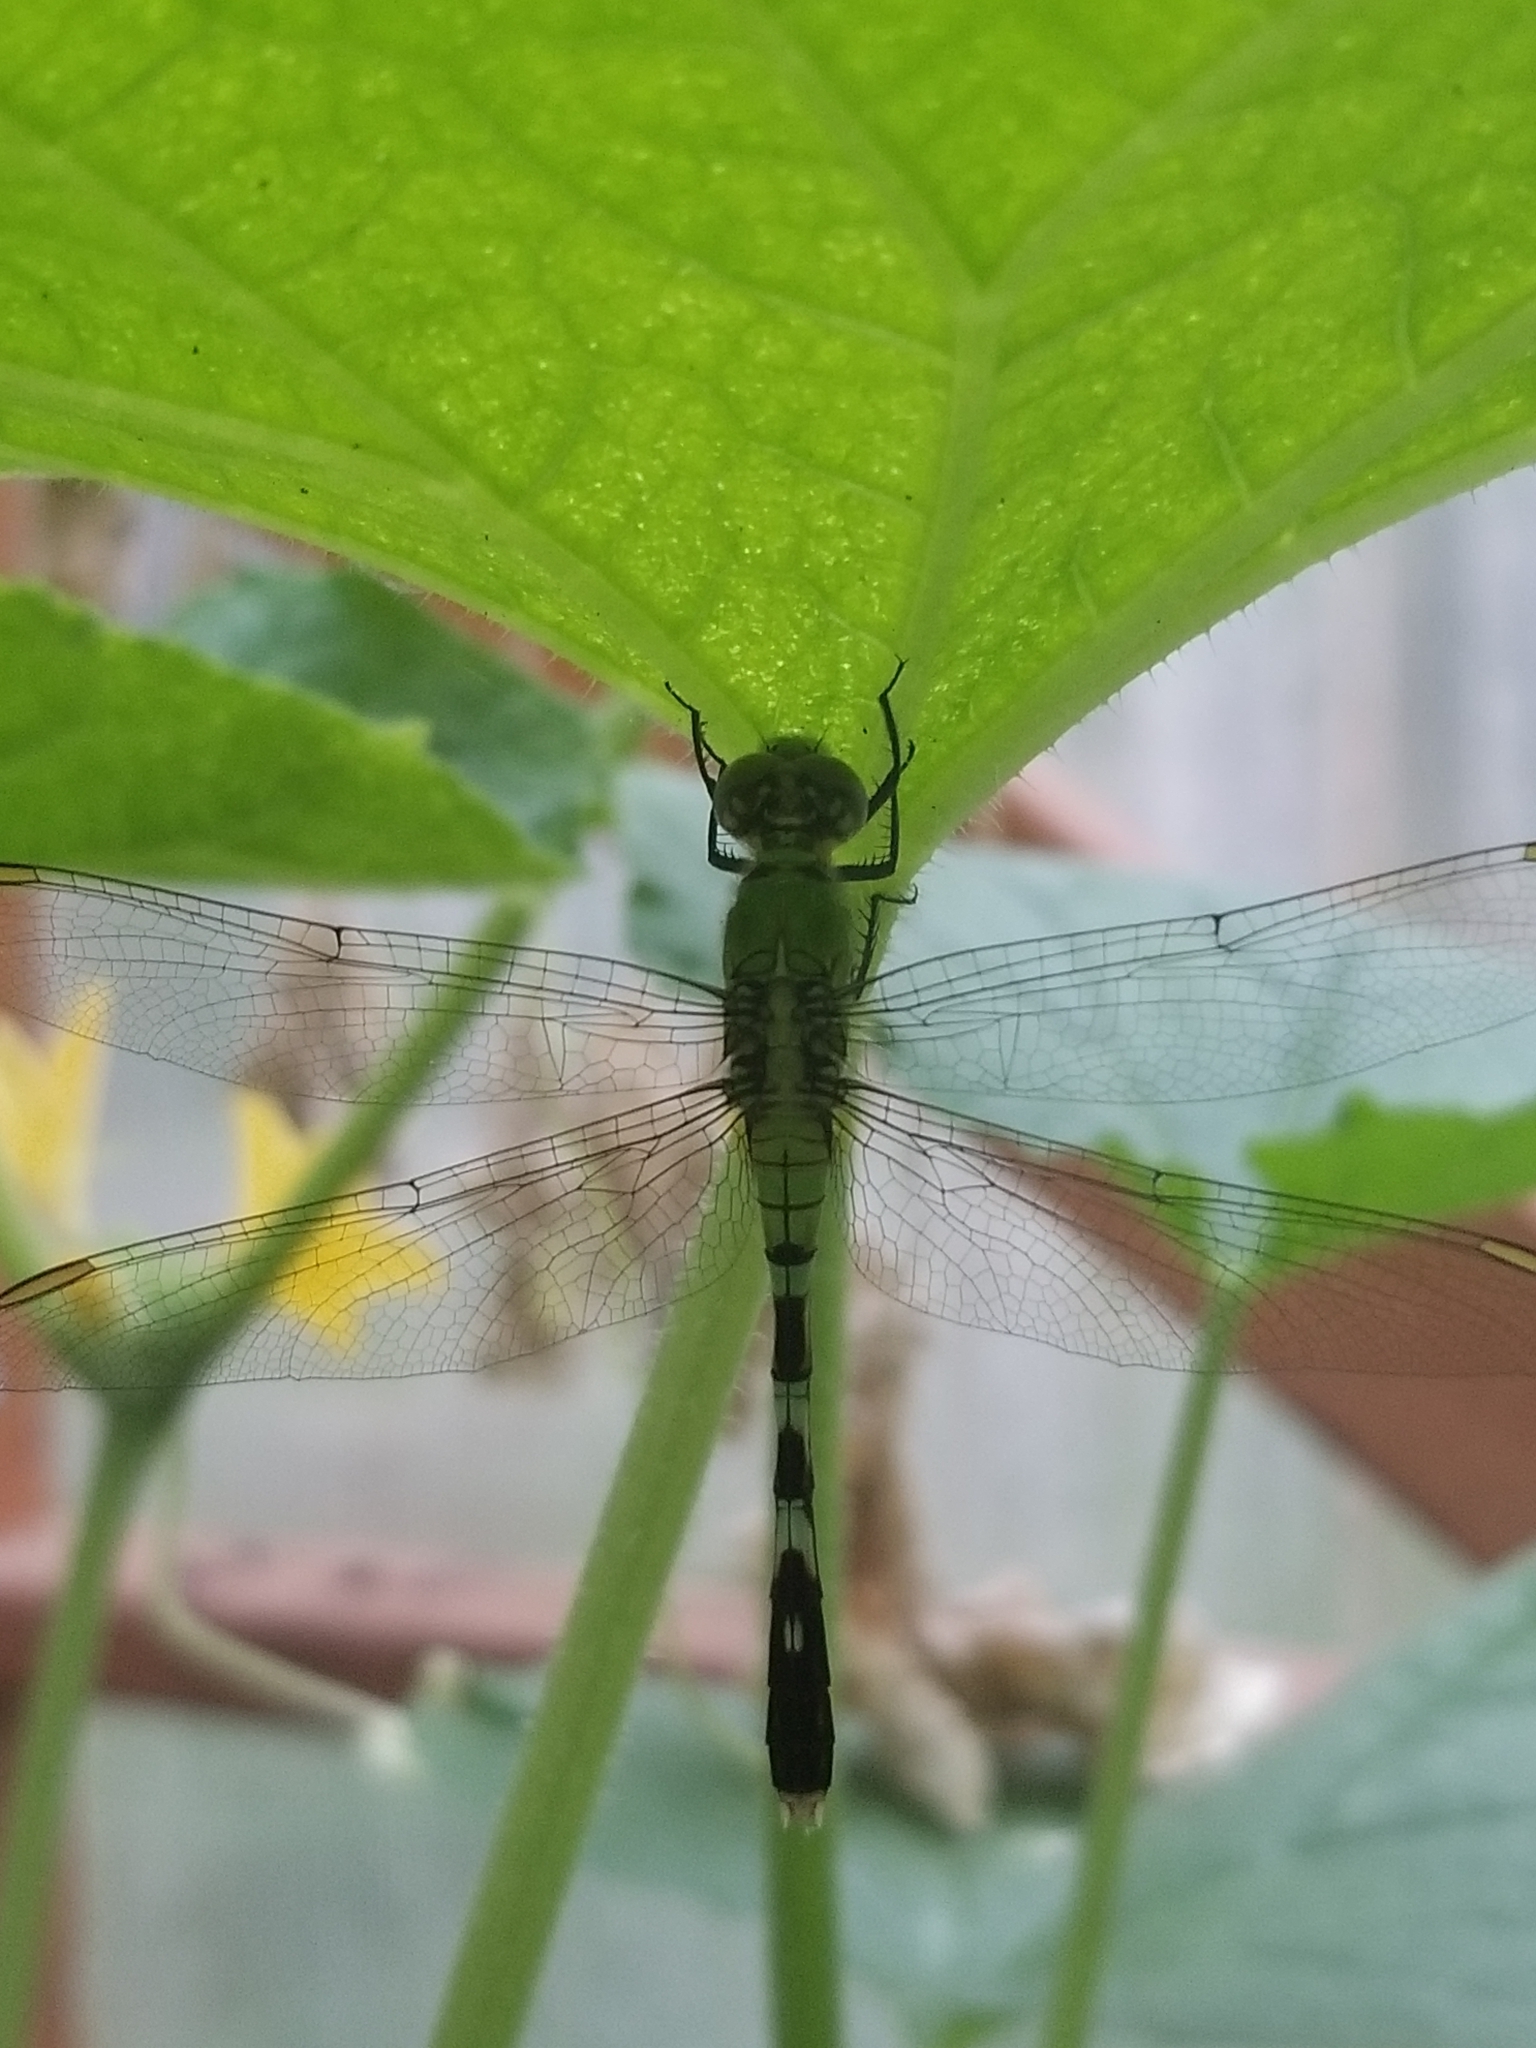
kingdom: Animalia
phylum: Arthropoda
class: Insecta
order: Odonata
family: Libellulidae
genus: Erythemis
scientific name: Erythemis simplicicollis
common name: Eastern pondhawk
